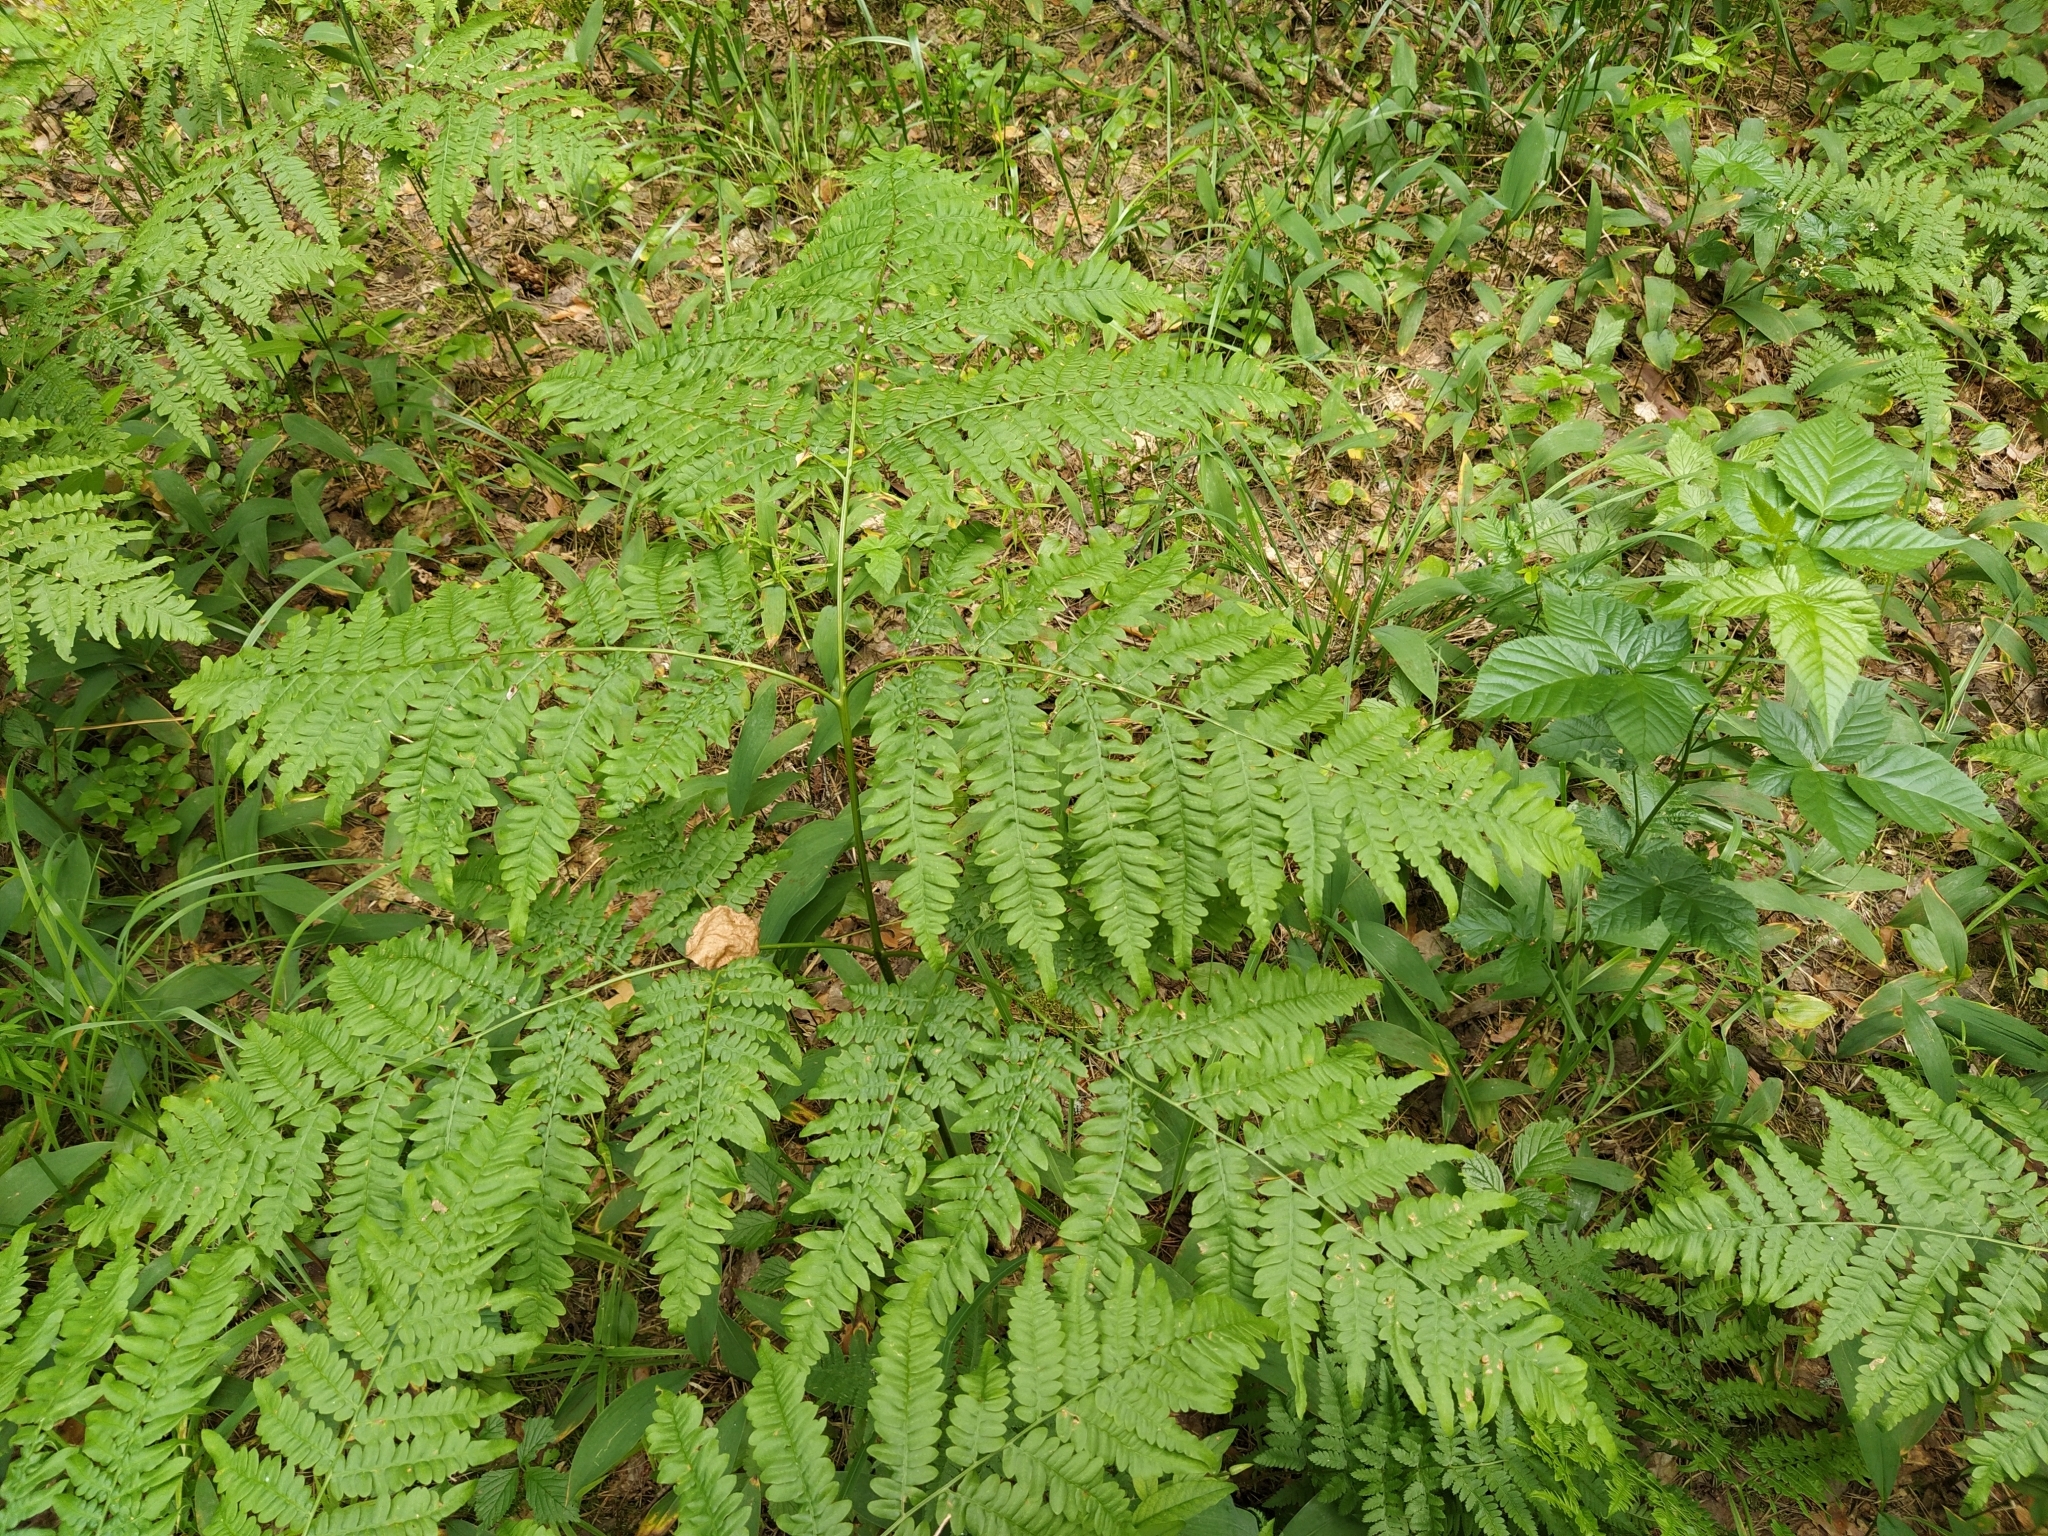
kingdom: Plantae
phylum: Tracheophyta
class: Polypodiopsida
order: Polypodiales
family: Dennstaedtiaceae
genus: Pteridium
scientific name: Pteridium aquilinum
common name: Bracken
